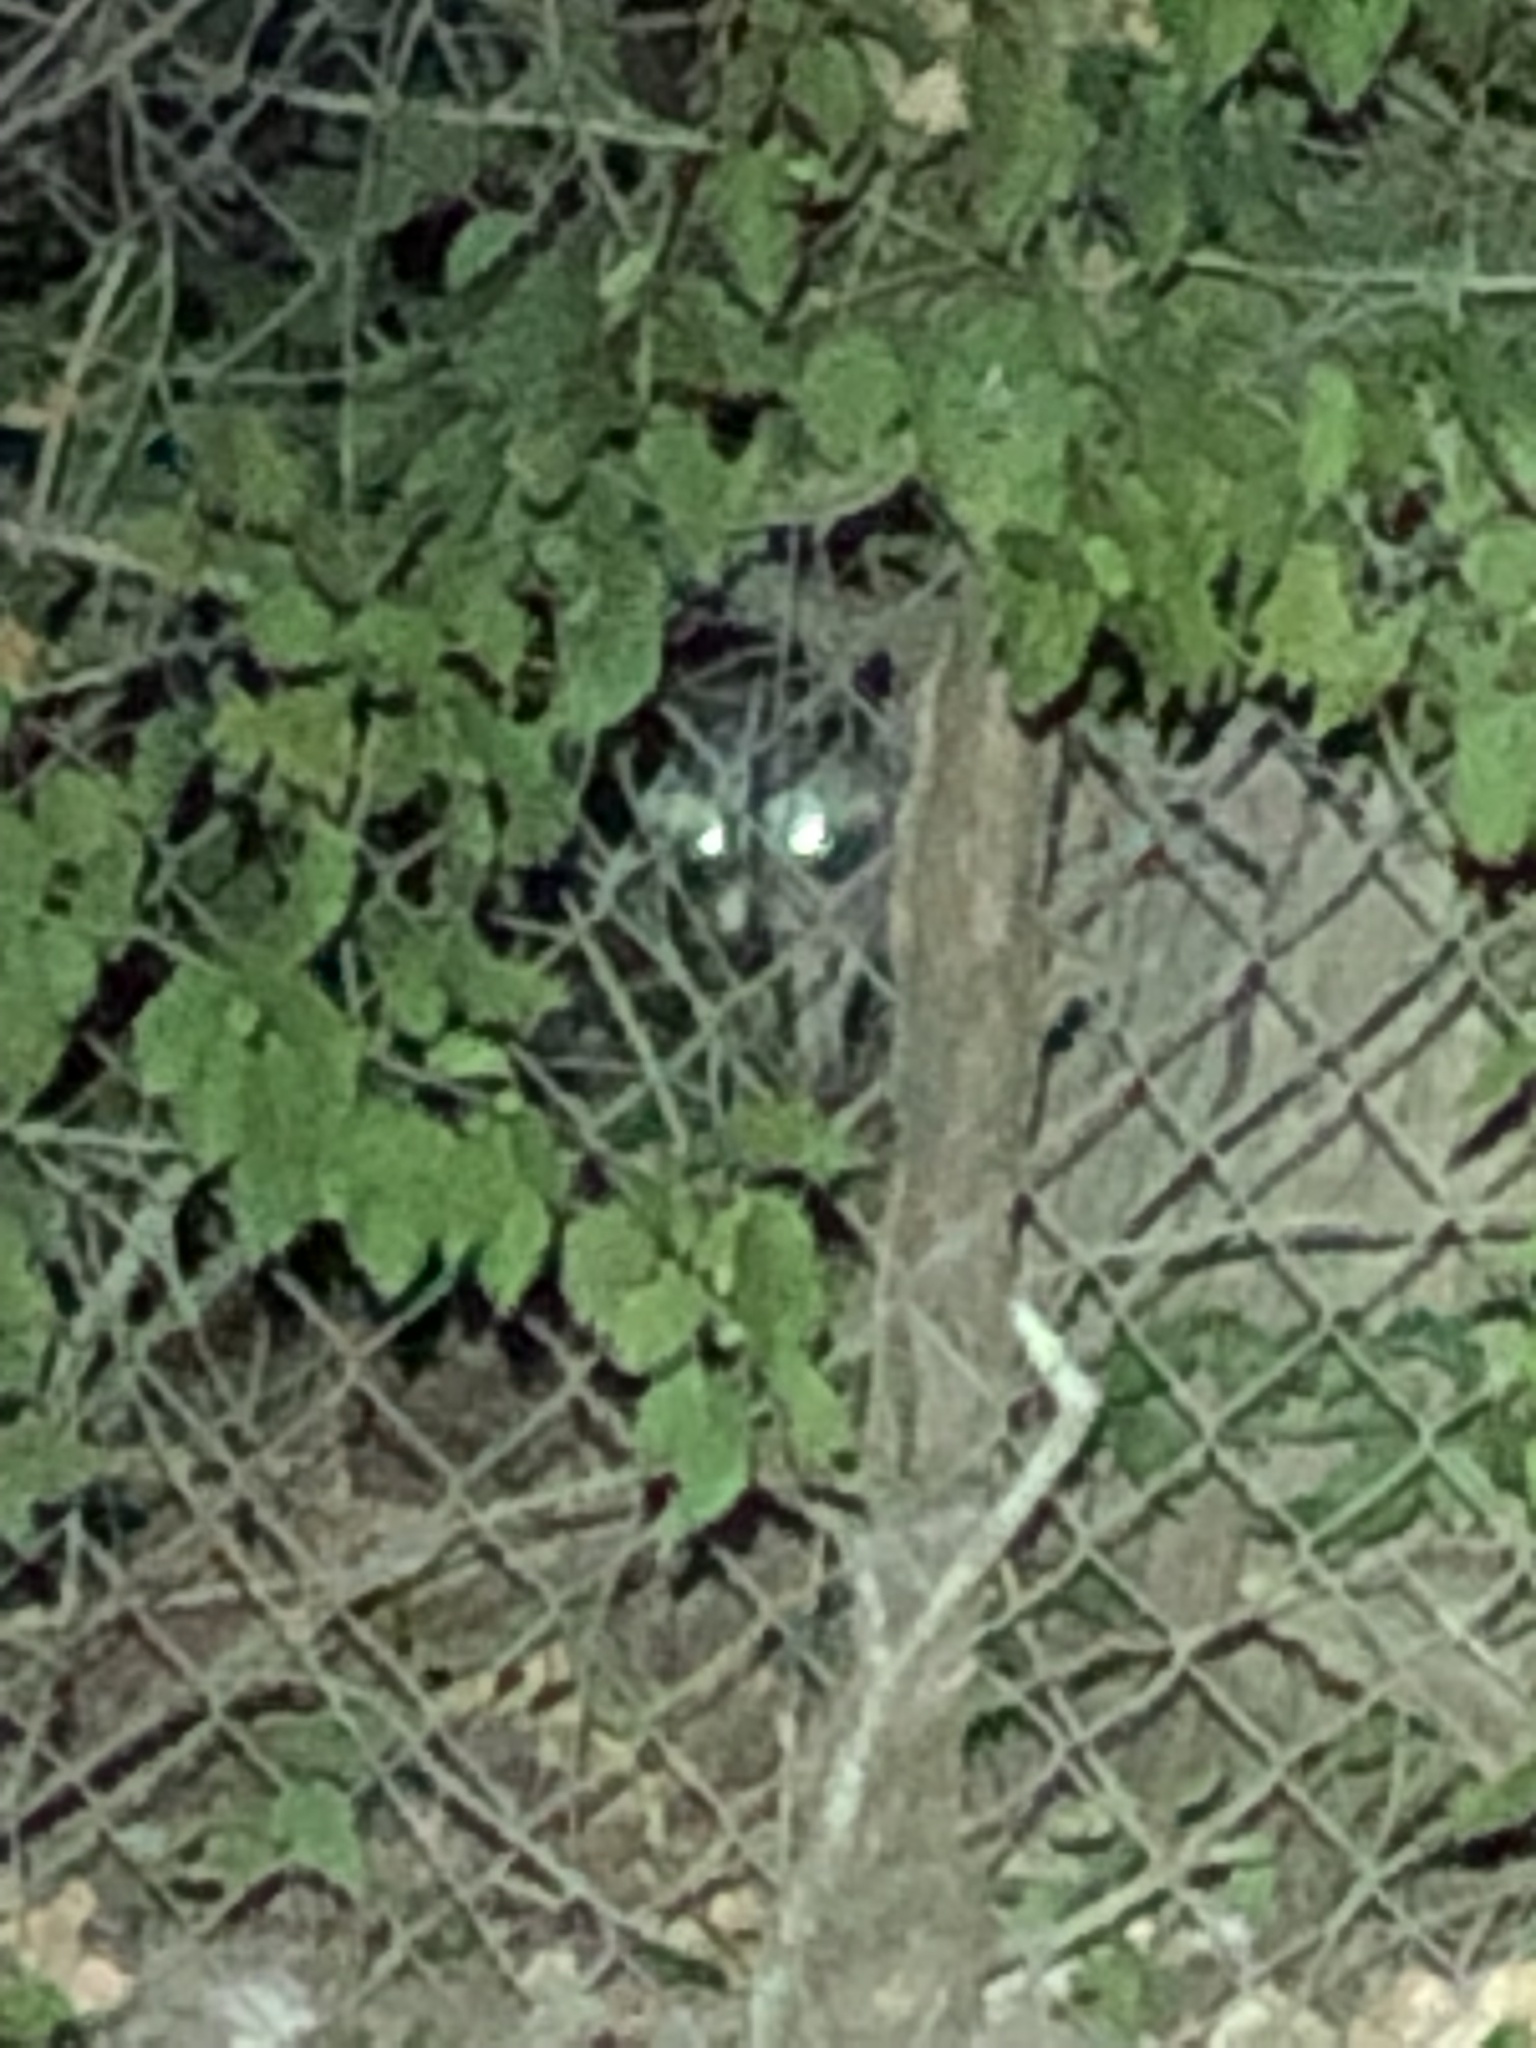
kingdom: Animalia
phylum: Chordata
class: Mammalia
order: Carnivora
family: Procyonidae
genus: Procyon
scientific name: Procyon lotor
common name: Raccoon
